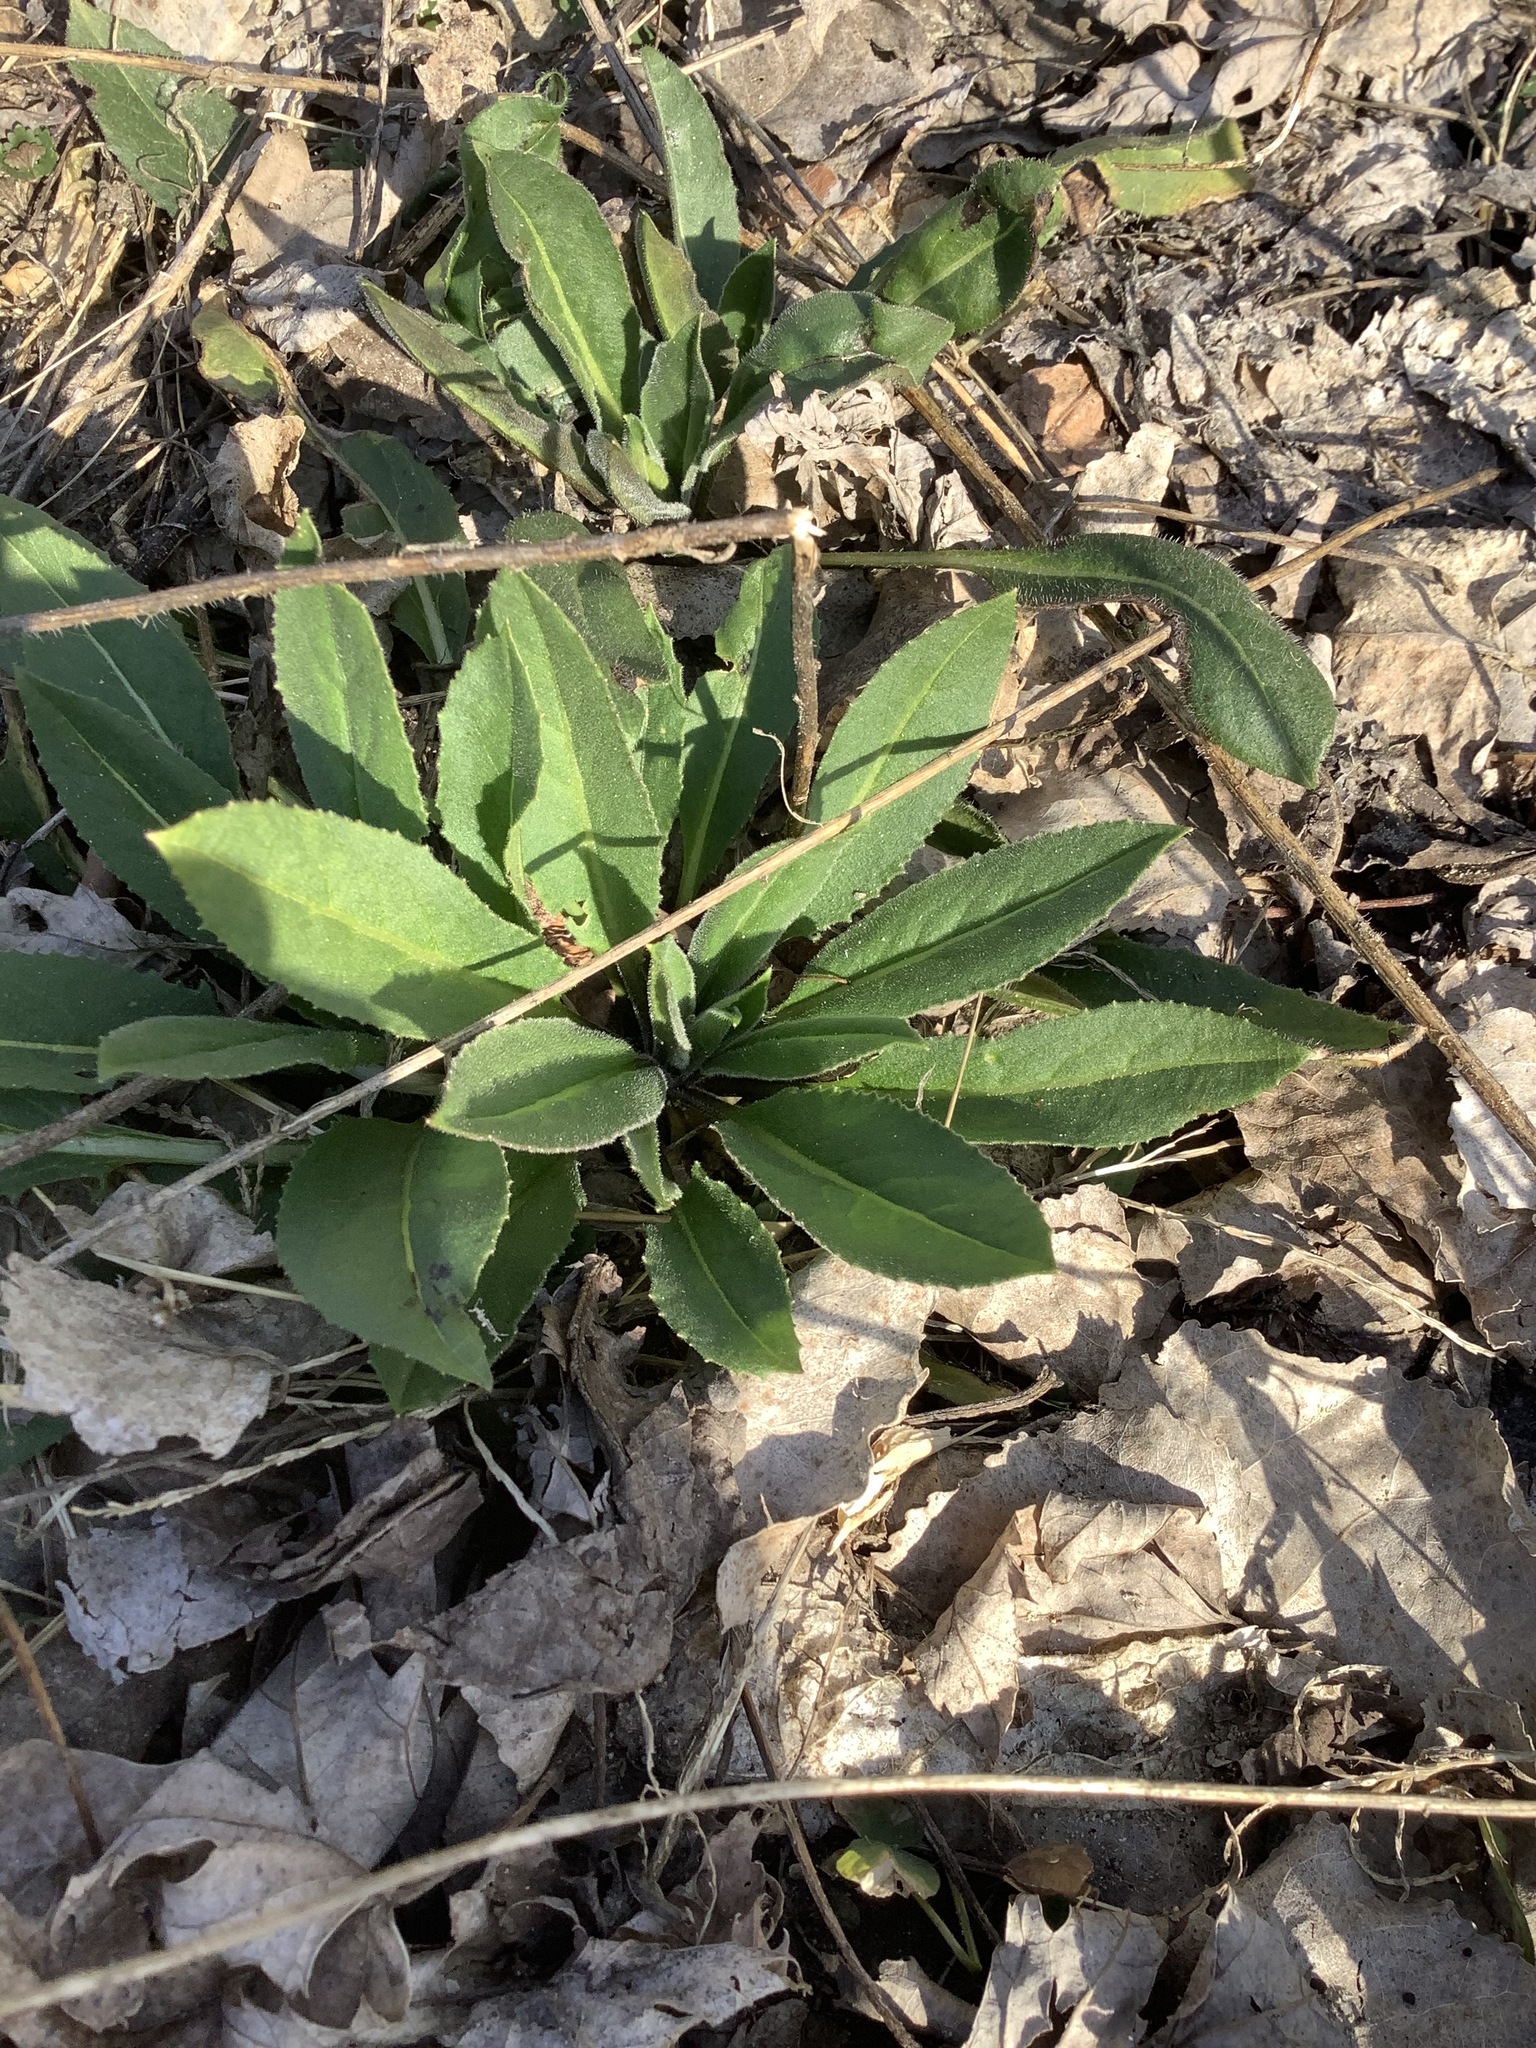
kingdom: Plantae
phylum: Tracheophyta
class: Magnoliopsida
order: Brassicales
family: Brassicaceae
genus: Hesperis
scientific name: Hesperis matronalis
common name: Dame's-violet
